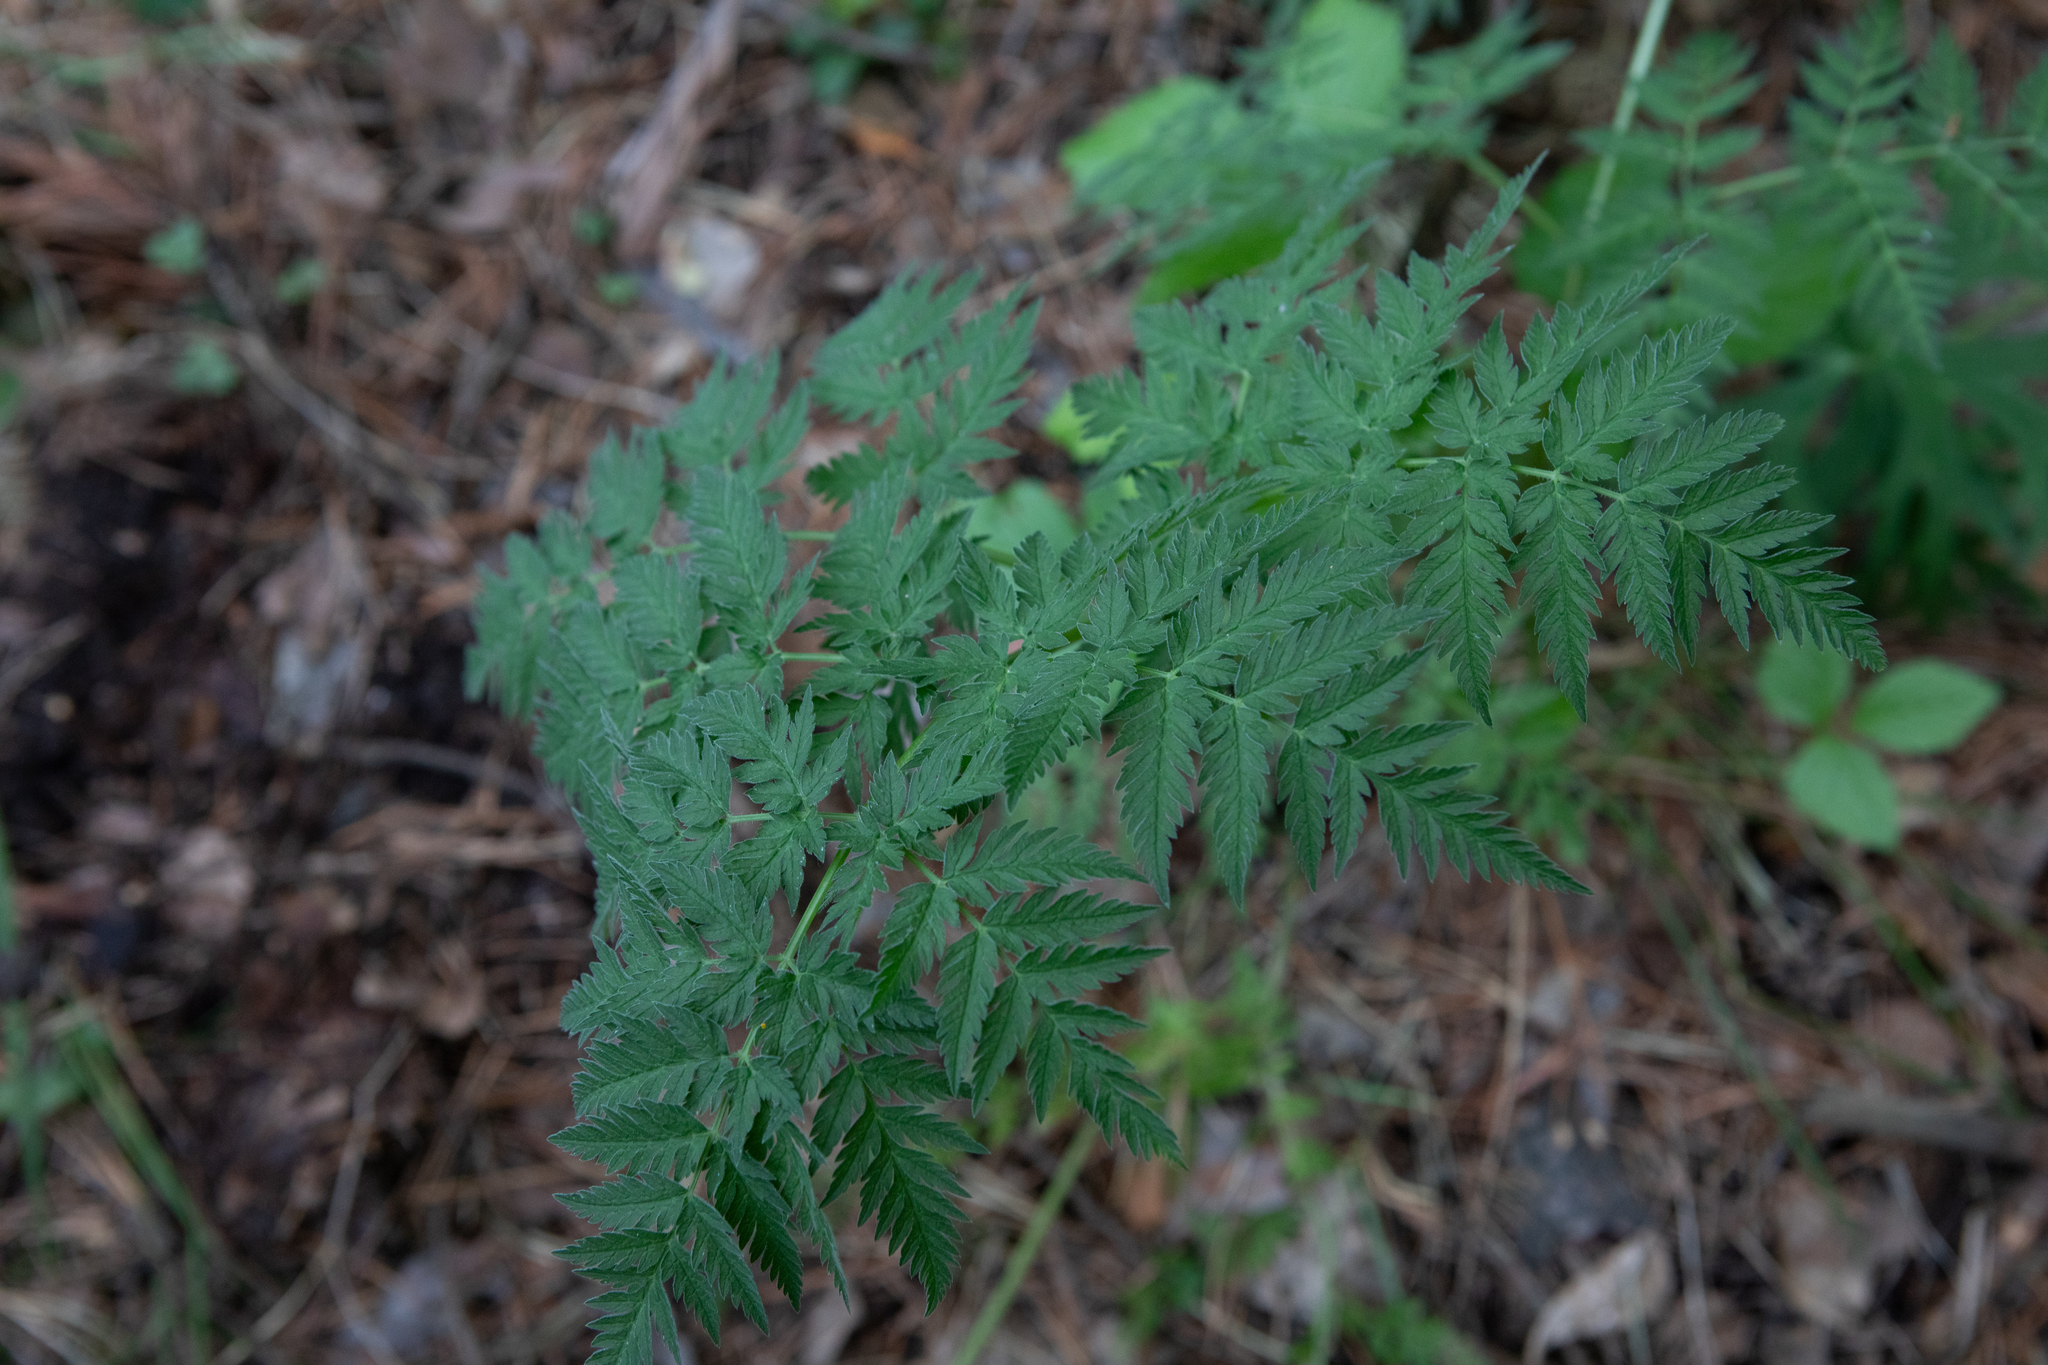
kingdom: Plantae
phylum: Tracheophyta
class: Magnoliopsida
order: Apiales
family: Apiaceae
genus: Anthriscus
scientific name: Anthriscus sylvestris
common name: Cow parsley
